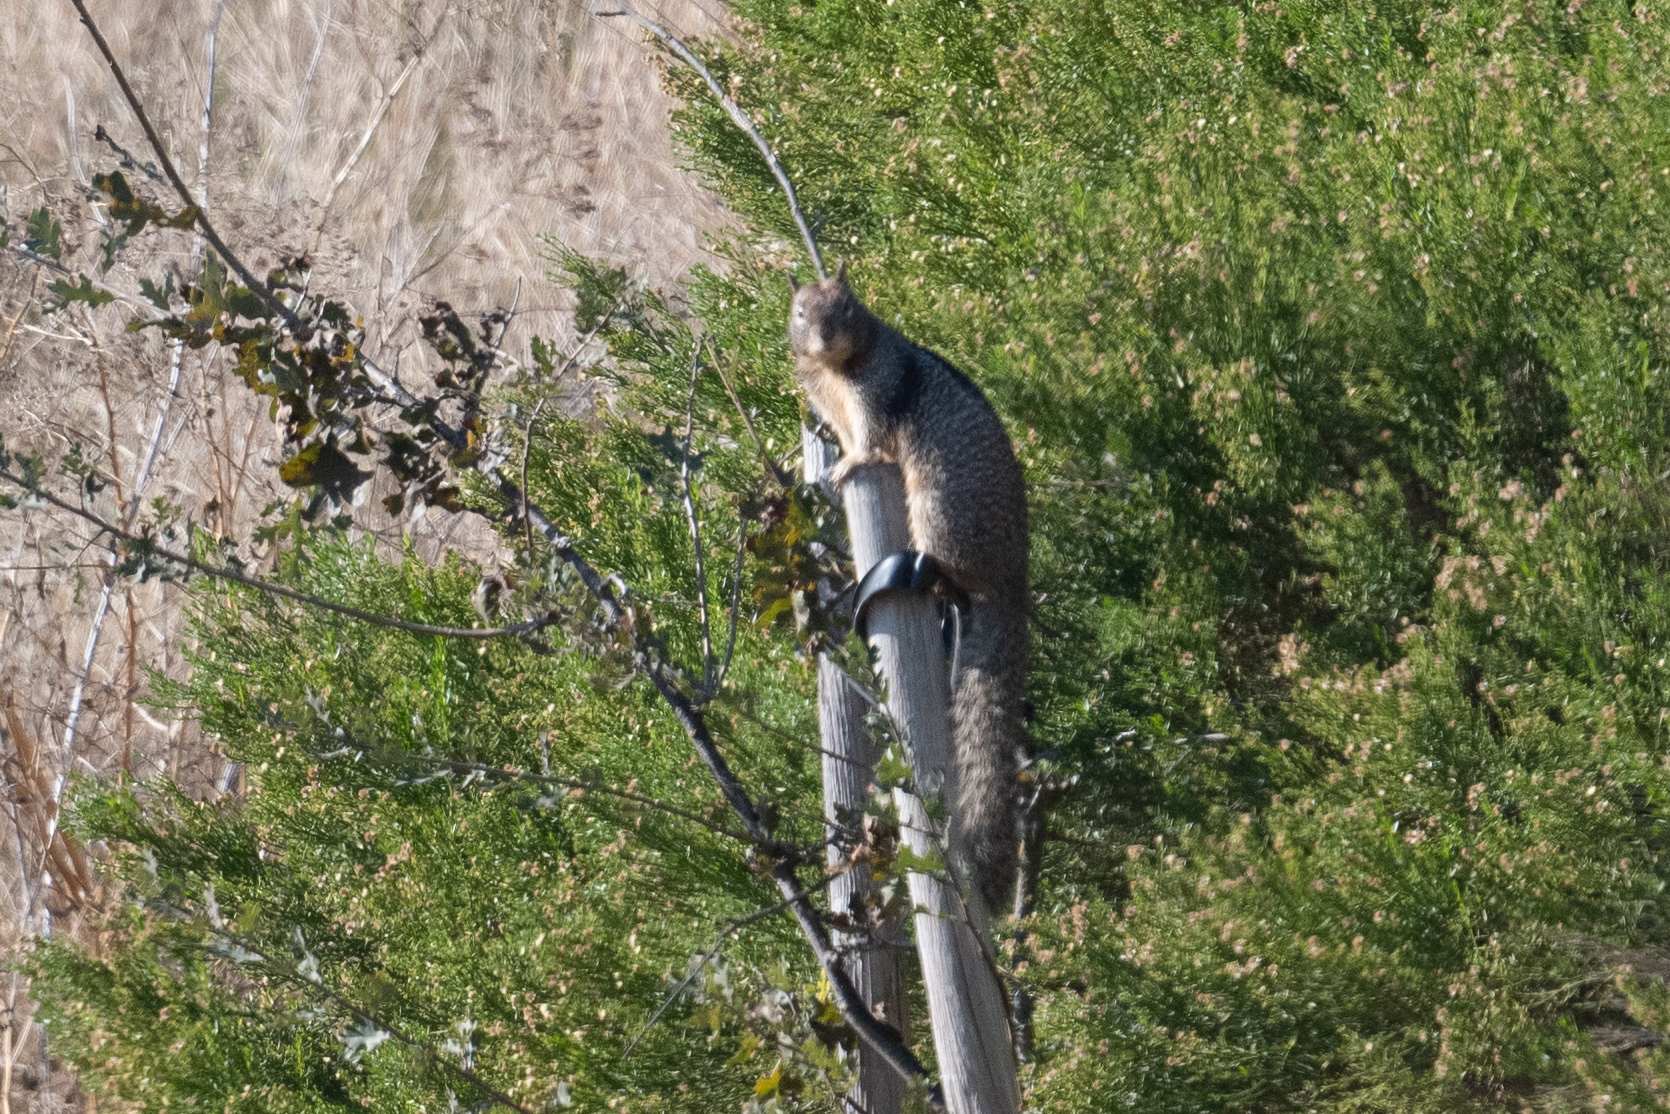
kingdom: Animalia
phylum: Chordata
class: Mammalia
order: Rodentia
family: Sciuridae
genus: Otospermophilus
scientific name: Otospermophilus beecheyi
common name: California ground squirrel
